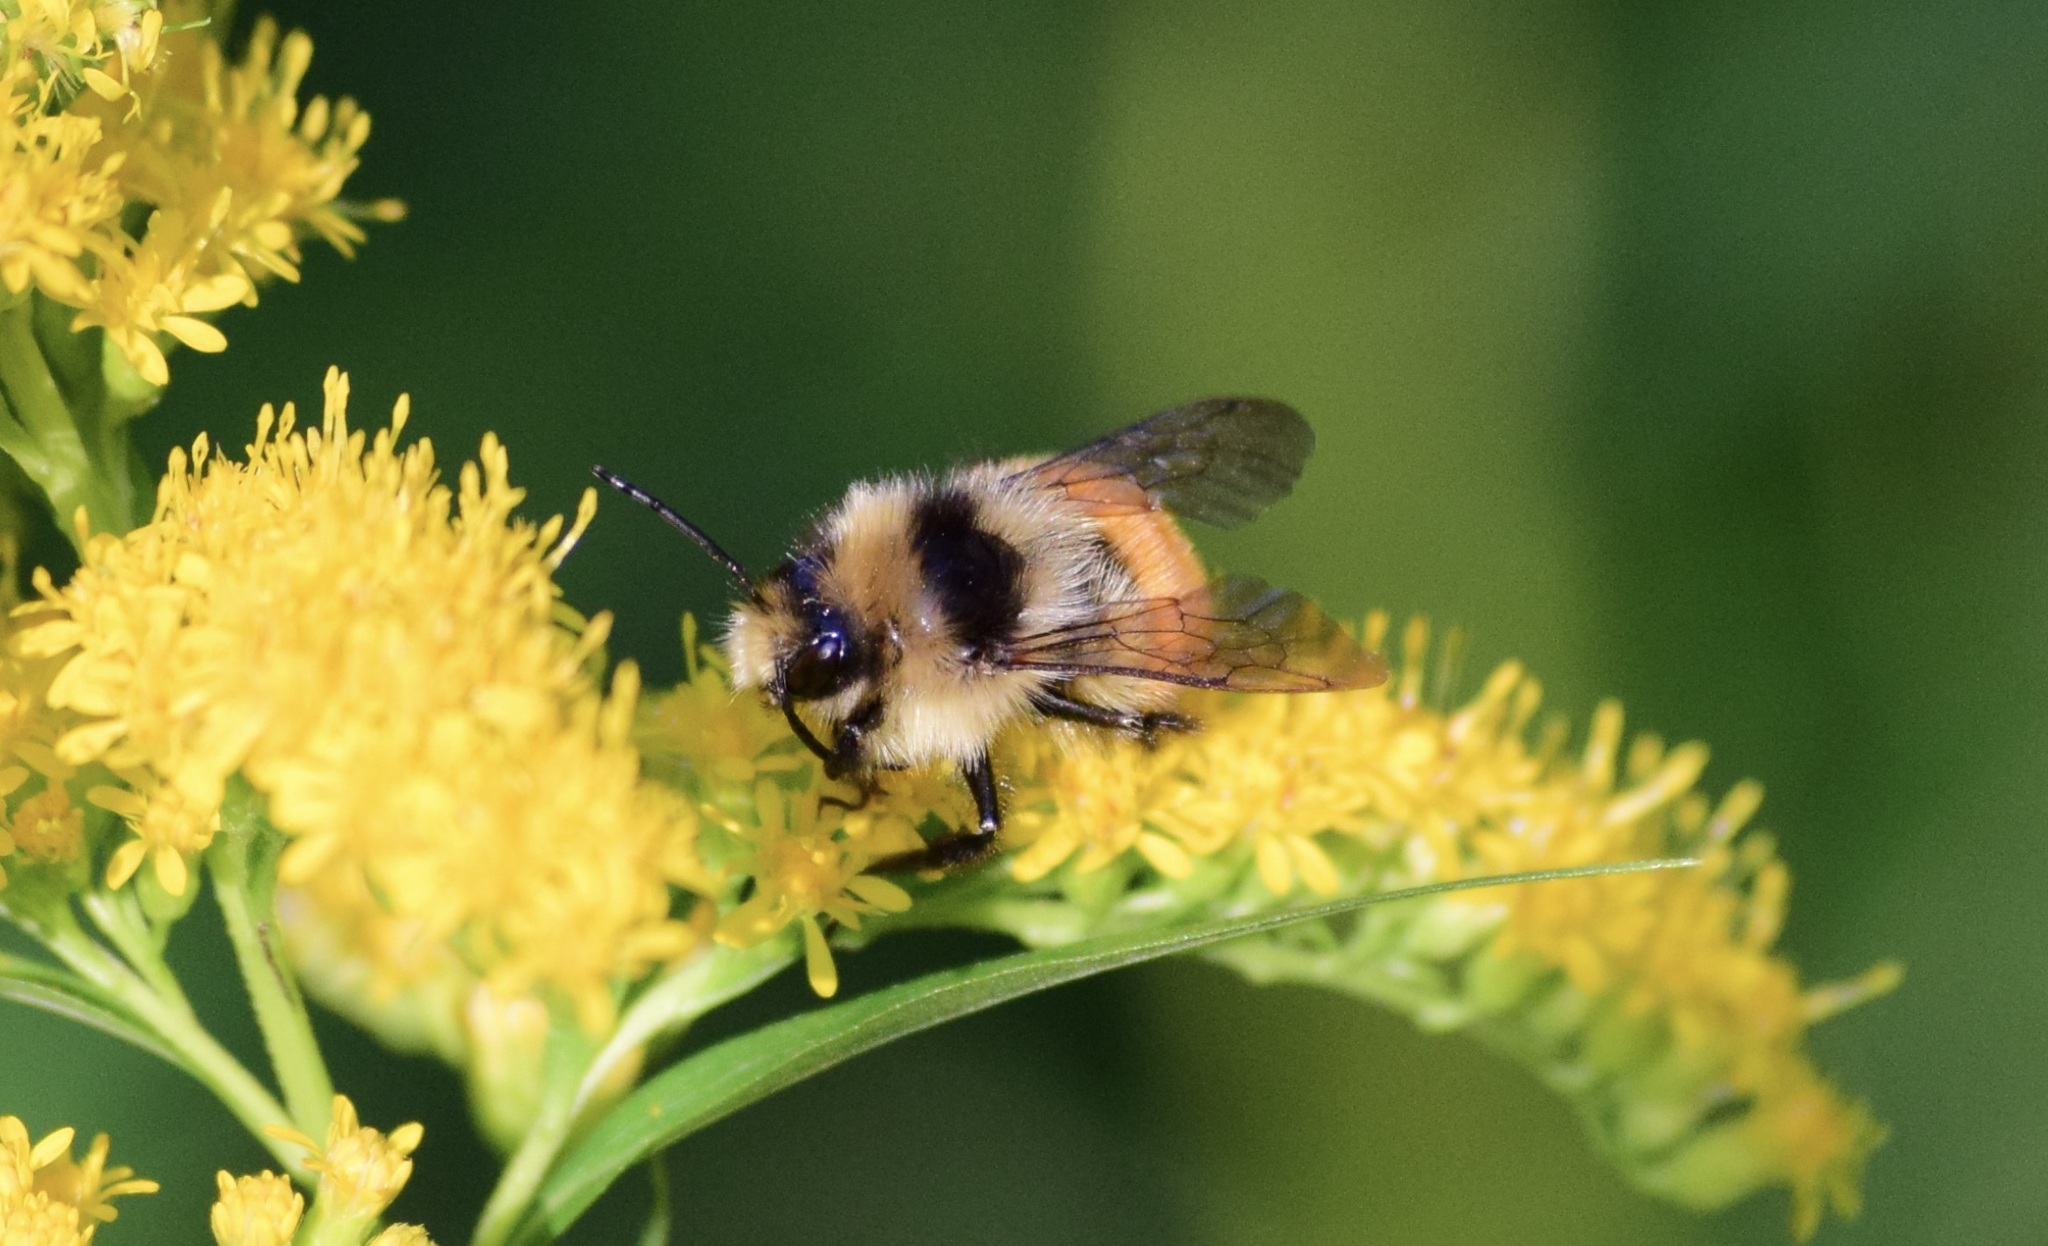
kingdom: Animalia
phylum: Arthropoda
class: Insecta
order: Hymenoptera
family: Apidae
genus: Bombus
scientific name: Bombus ternarius
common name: Tri-colored bumble bee
